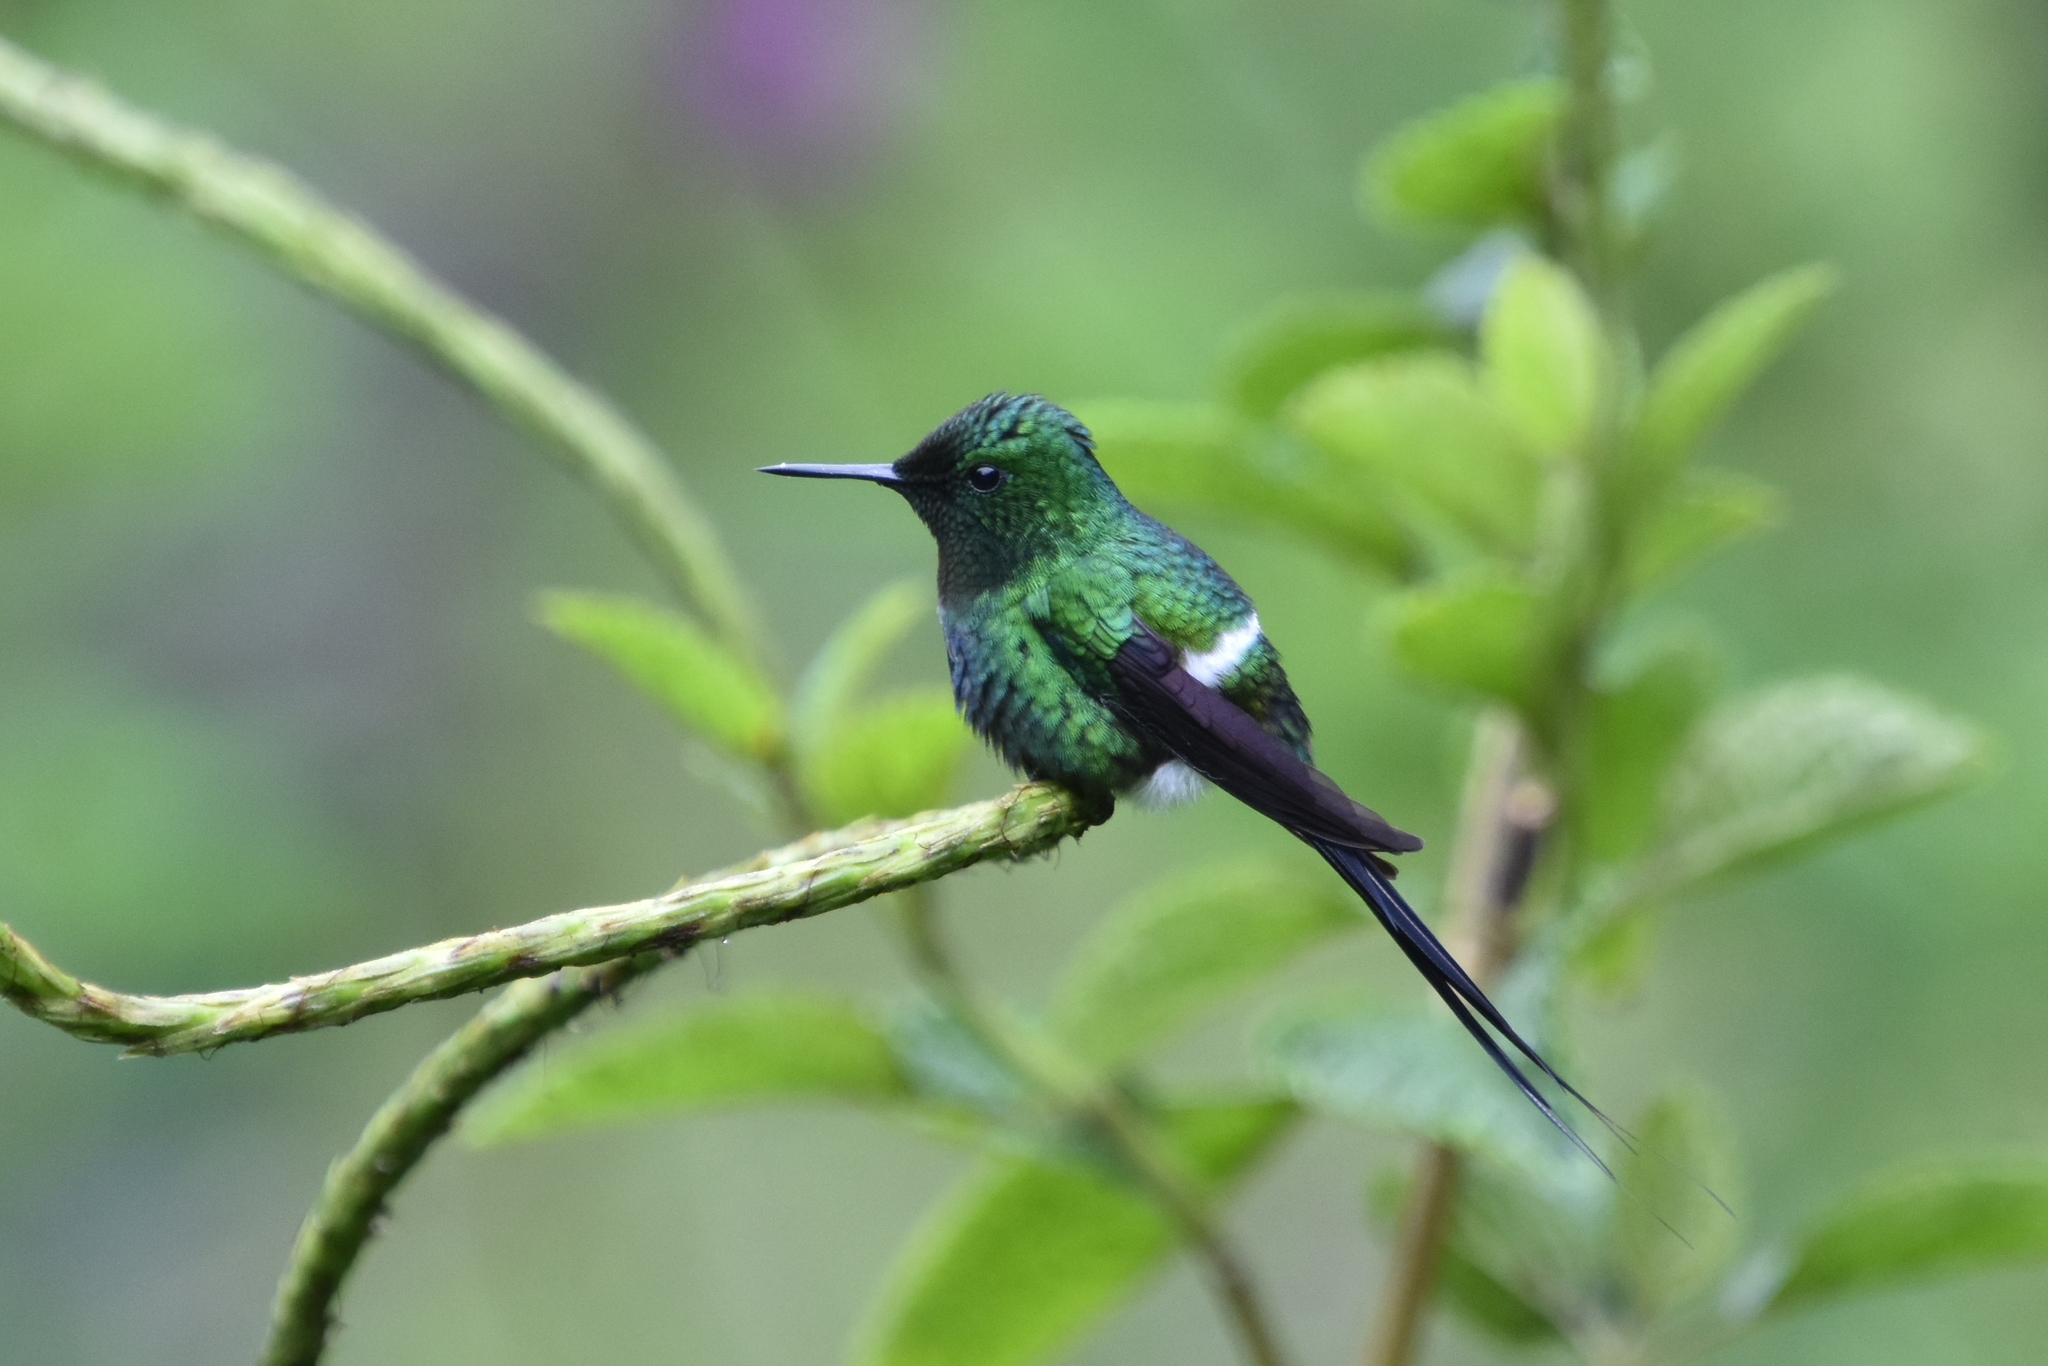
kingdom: Animalia
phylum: Chordata
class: Aves
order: Apodiformes
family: Trochilidae
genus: Discosura
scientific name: Discosura conversii
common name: Green thorntail
